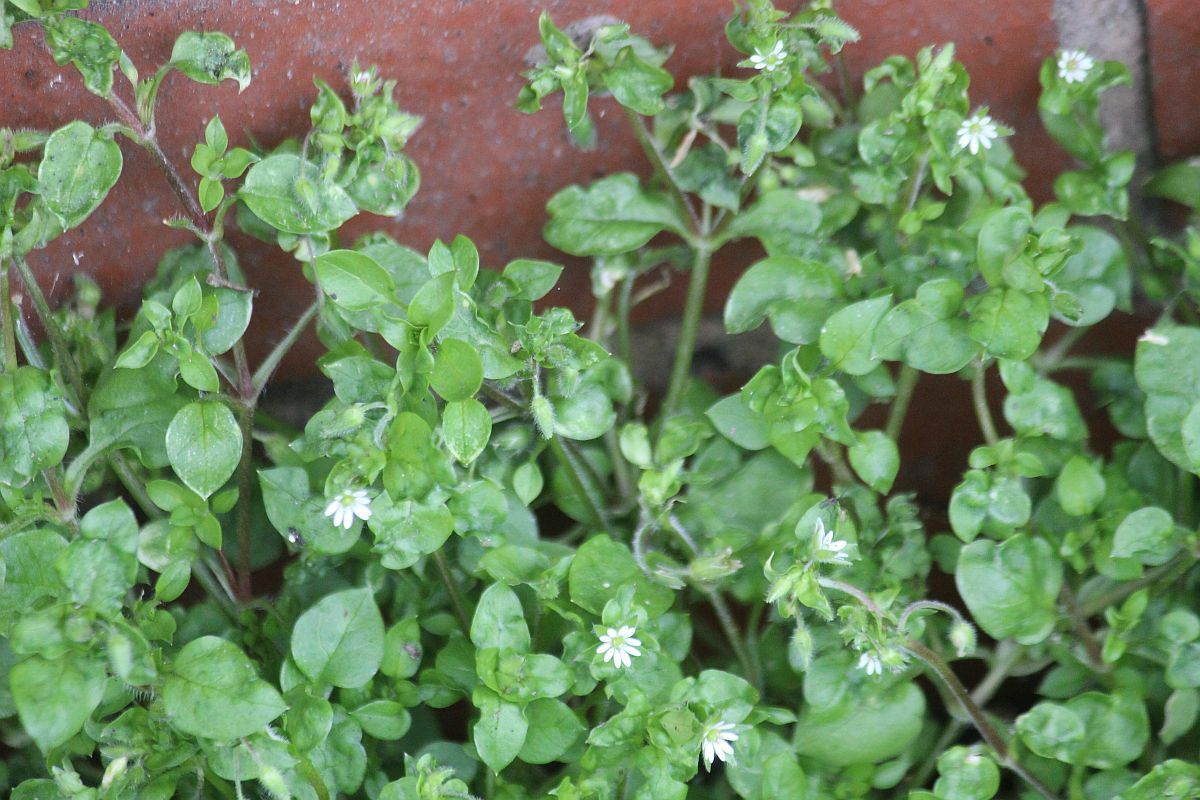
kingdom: Plantae
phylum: Tracheophyta
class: Magnoliopsida
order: Caryophyllales
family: Caryophyllaceae
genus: Stellaria
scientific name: Stellaria media
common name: Common chickweed
